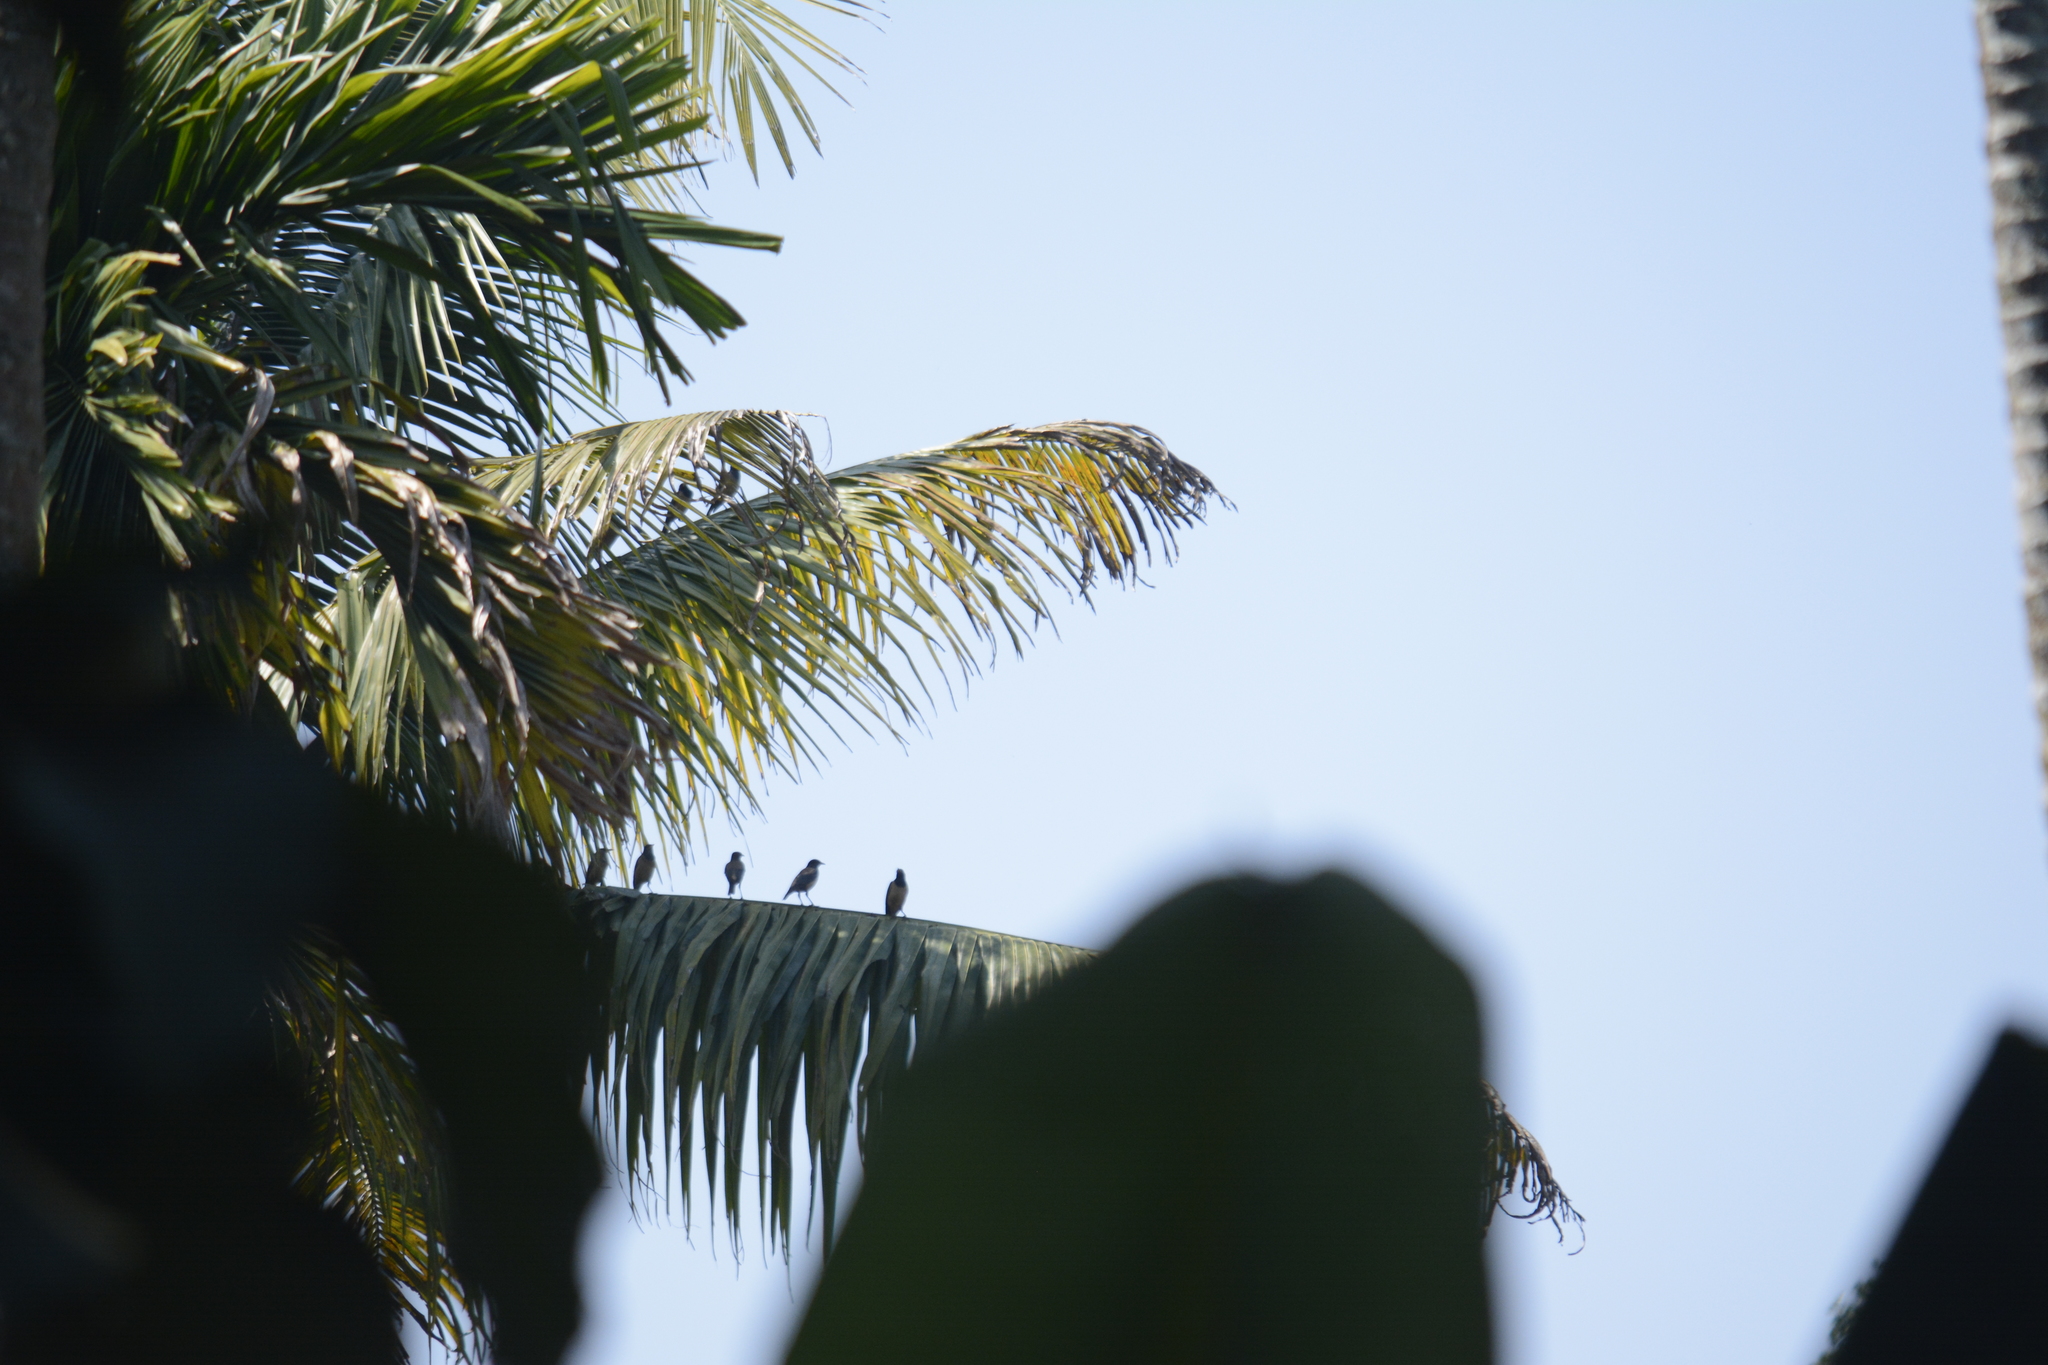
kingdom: Animalia
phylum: Chordata
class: Aves
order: Passeriformes
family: Sturnidae
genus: Sturnia
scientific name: Sturnia blythii
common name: Malabar starling
